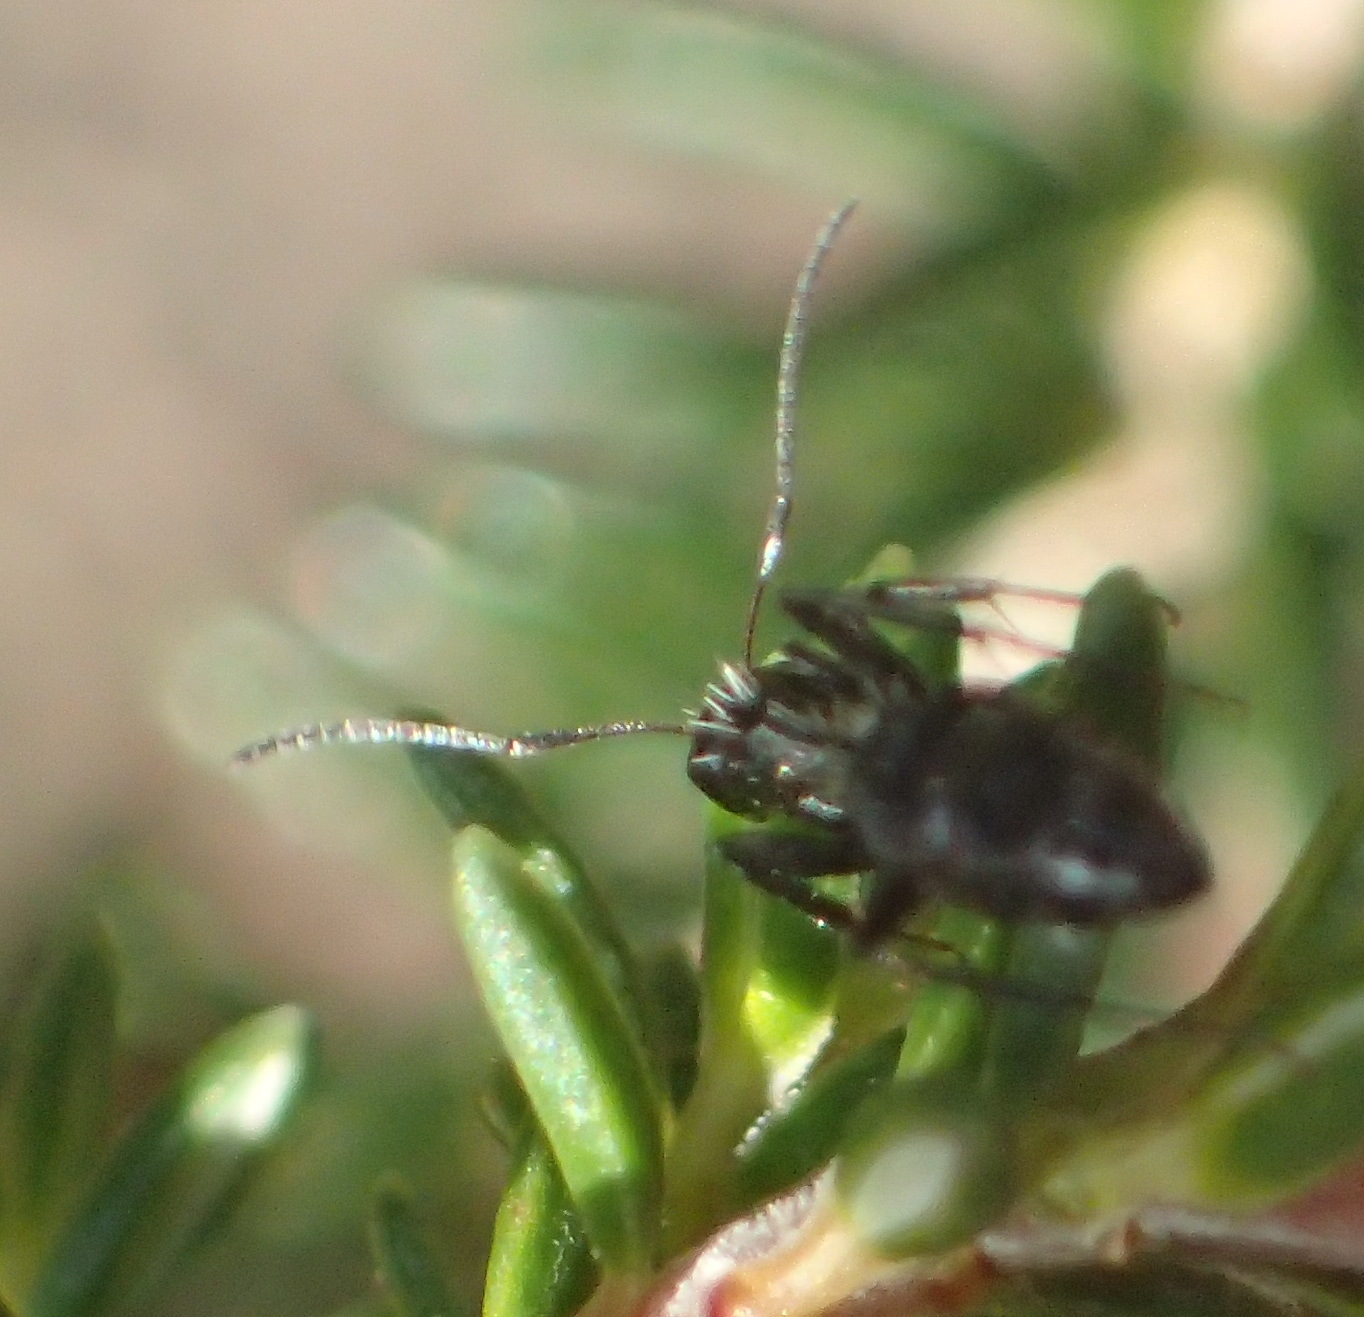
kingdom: Animalia
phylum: Arthropoda
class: Insecta
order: Hymenoptera
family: Formicidae
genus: Camponotus
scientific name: Camponotus niveosetosus
